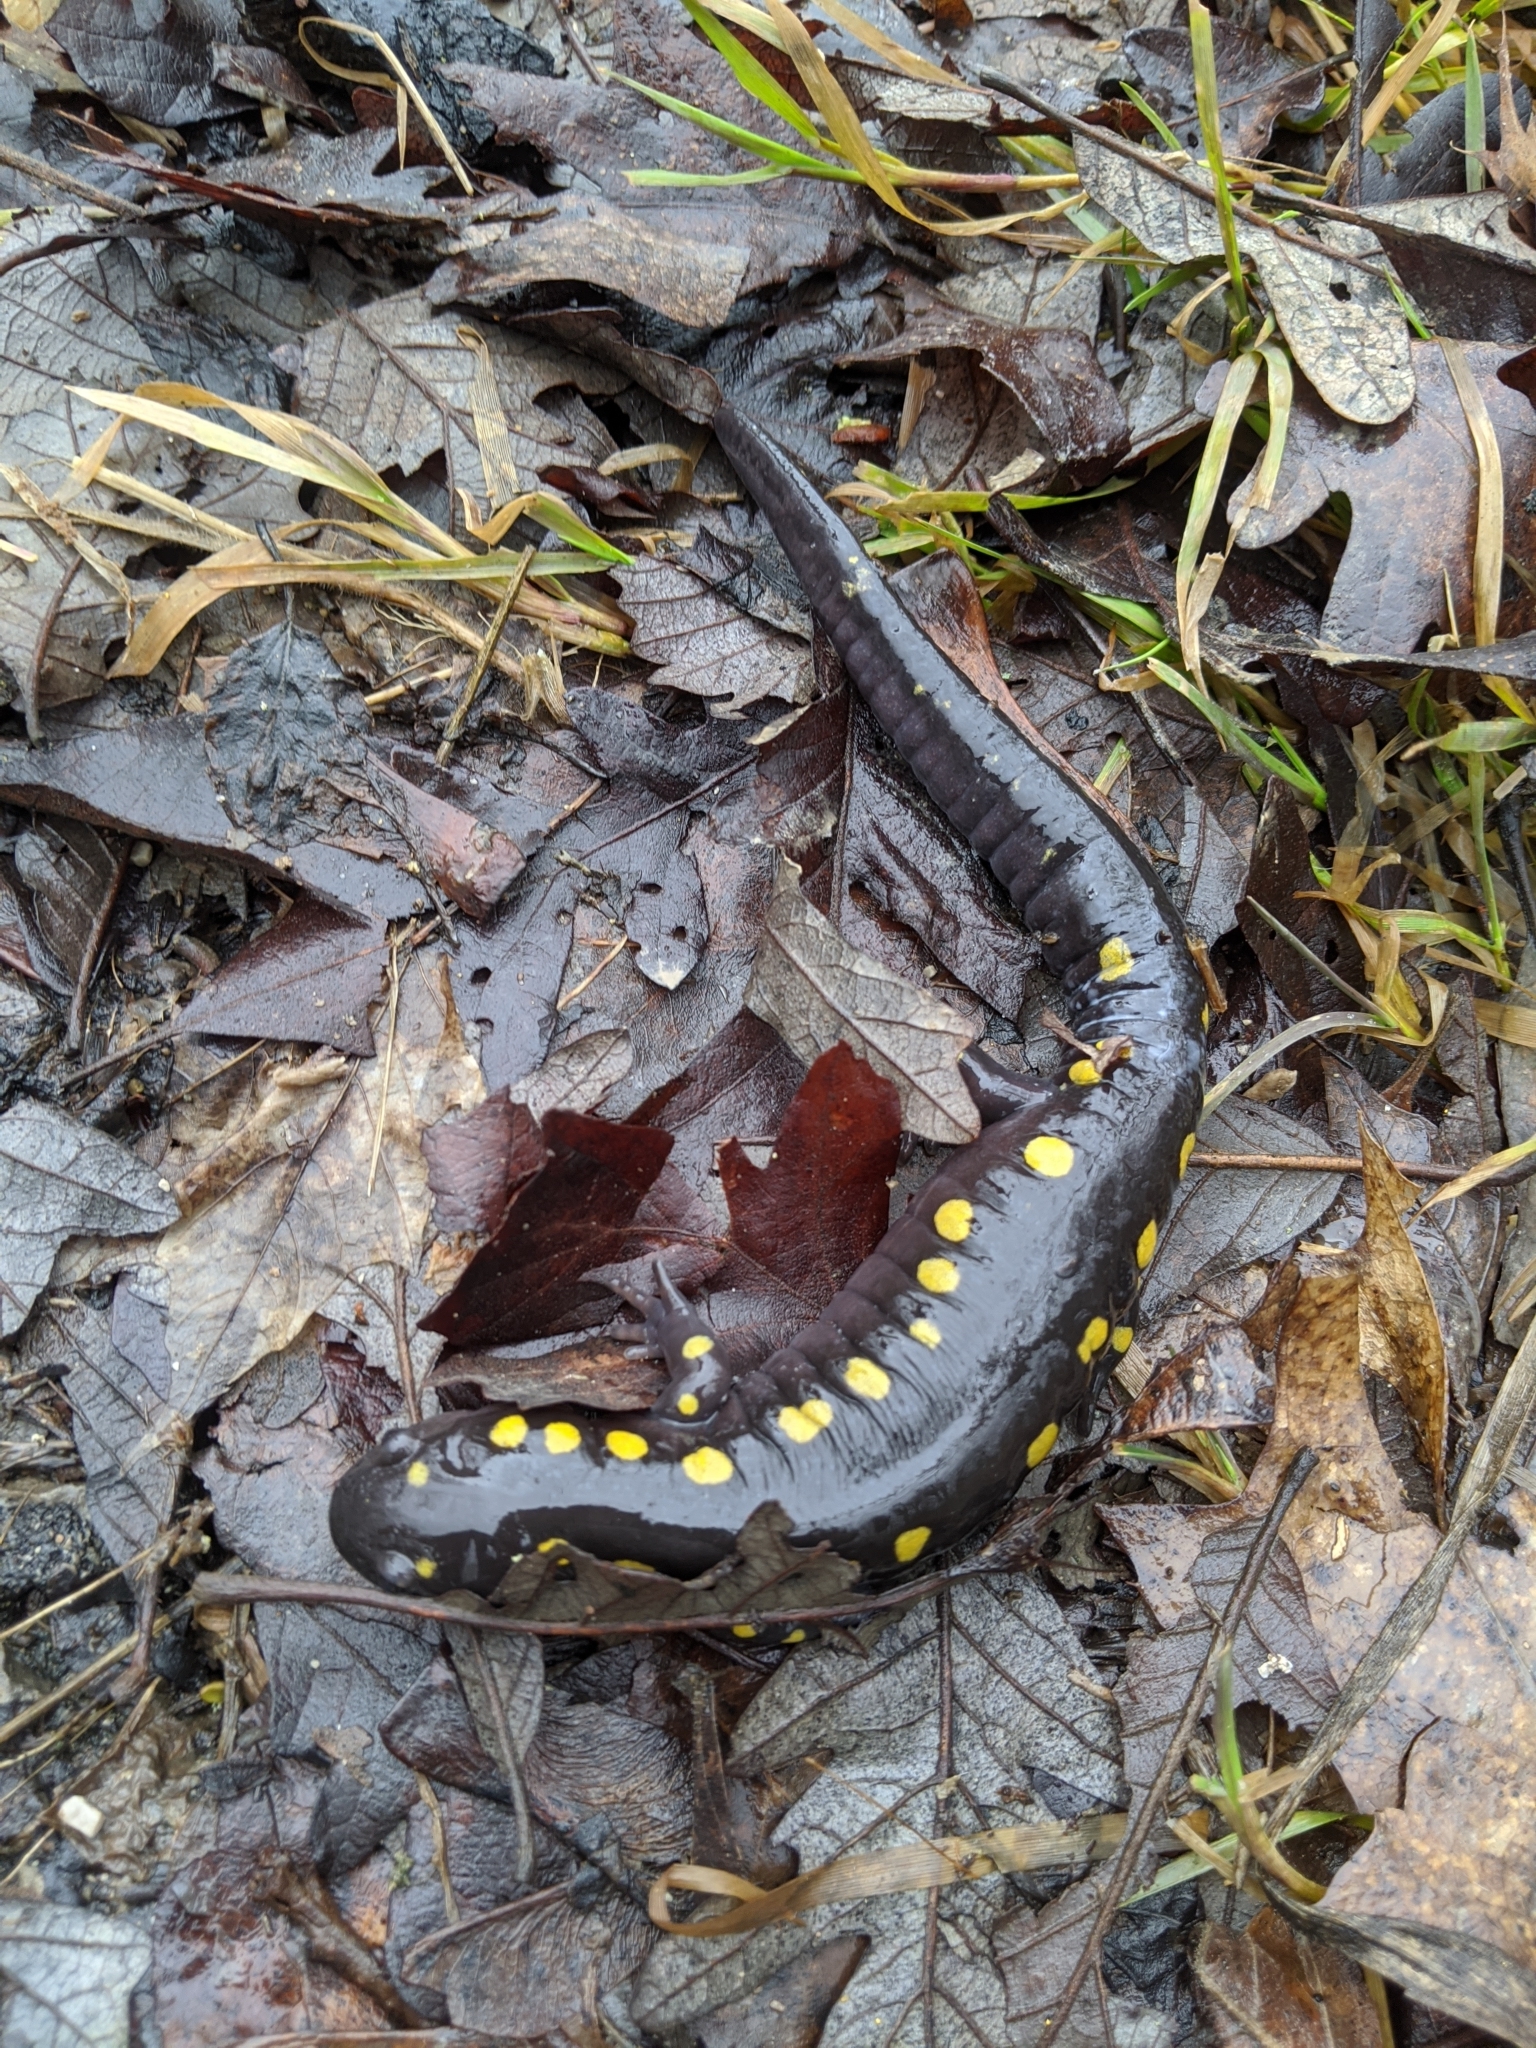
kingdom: Animalia
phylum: Chordata
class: Amphibia
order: Caudata
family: Ambystomatidae
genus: Ambystoma
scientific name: Ambystoma maculatum
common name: Spotted salamander
